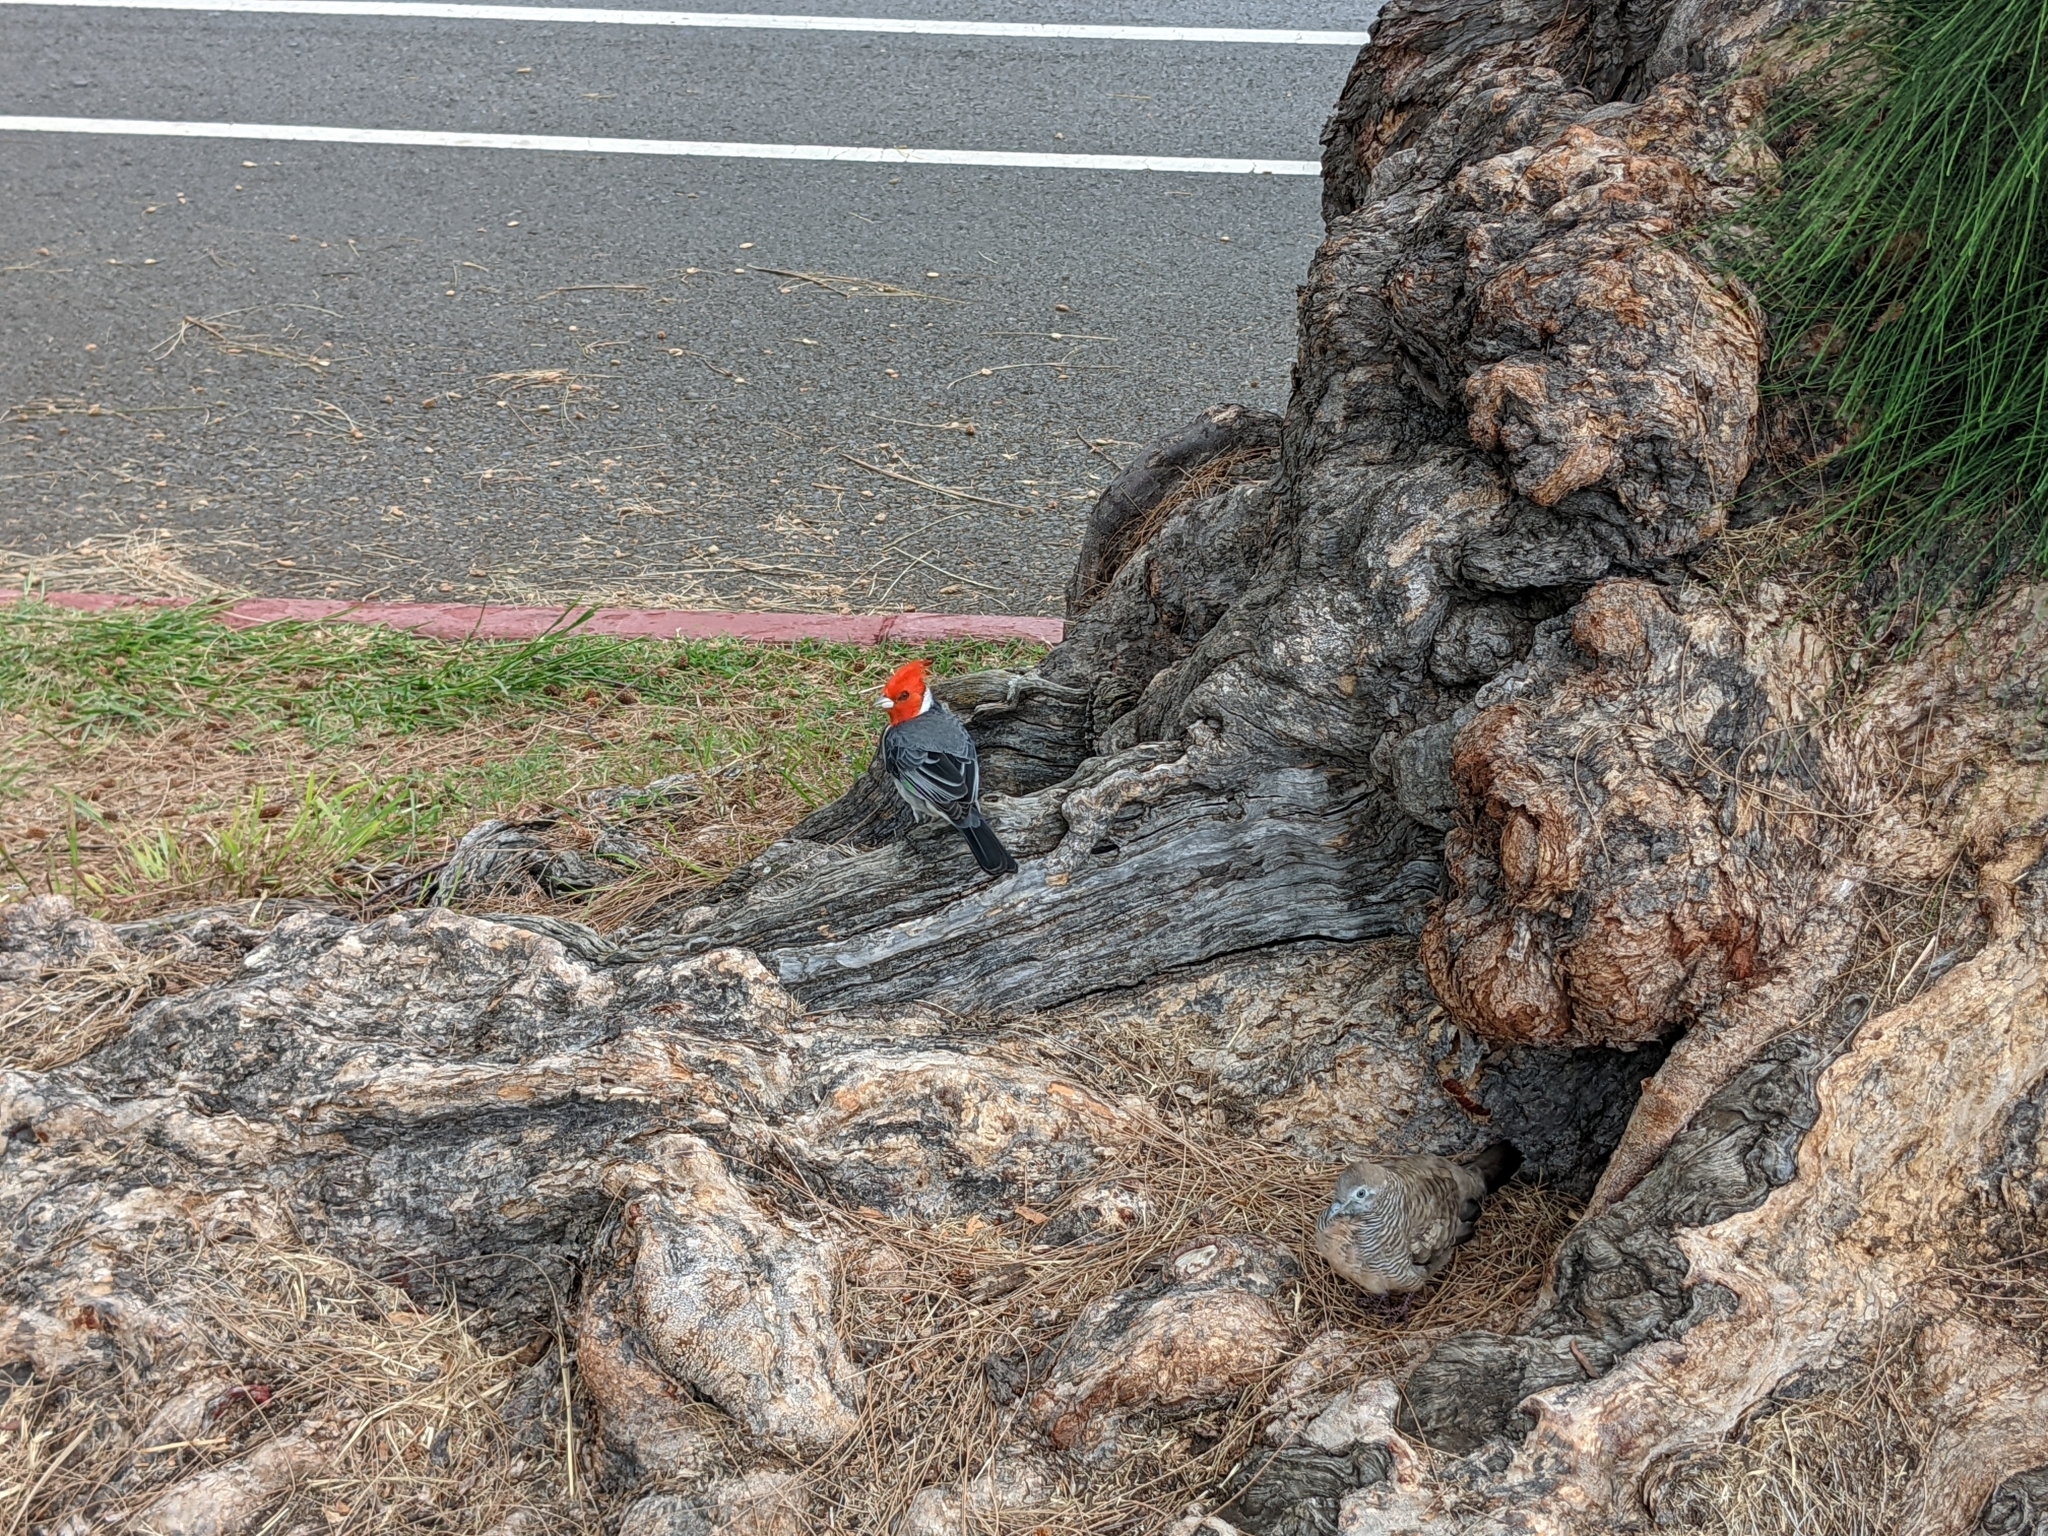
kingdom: Animalia
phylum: Chordata
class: Aves
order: Passeriformes
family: Thraupidae
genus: Paroaria
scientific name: Paroaria coronata
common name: Red-crested cardinal
